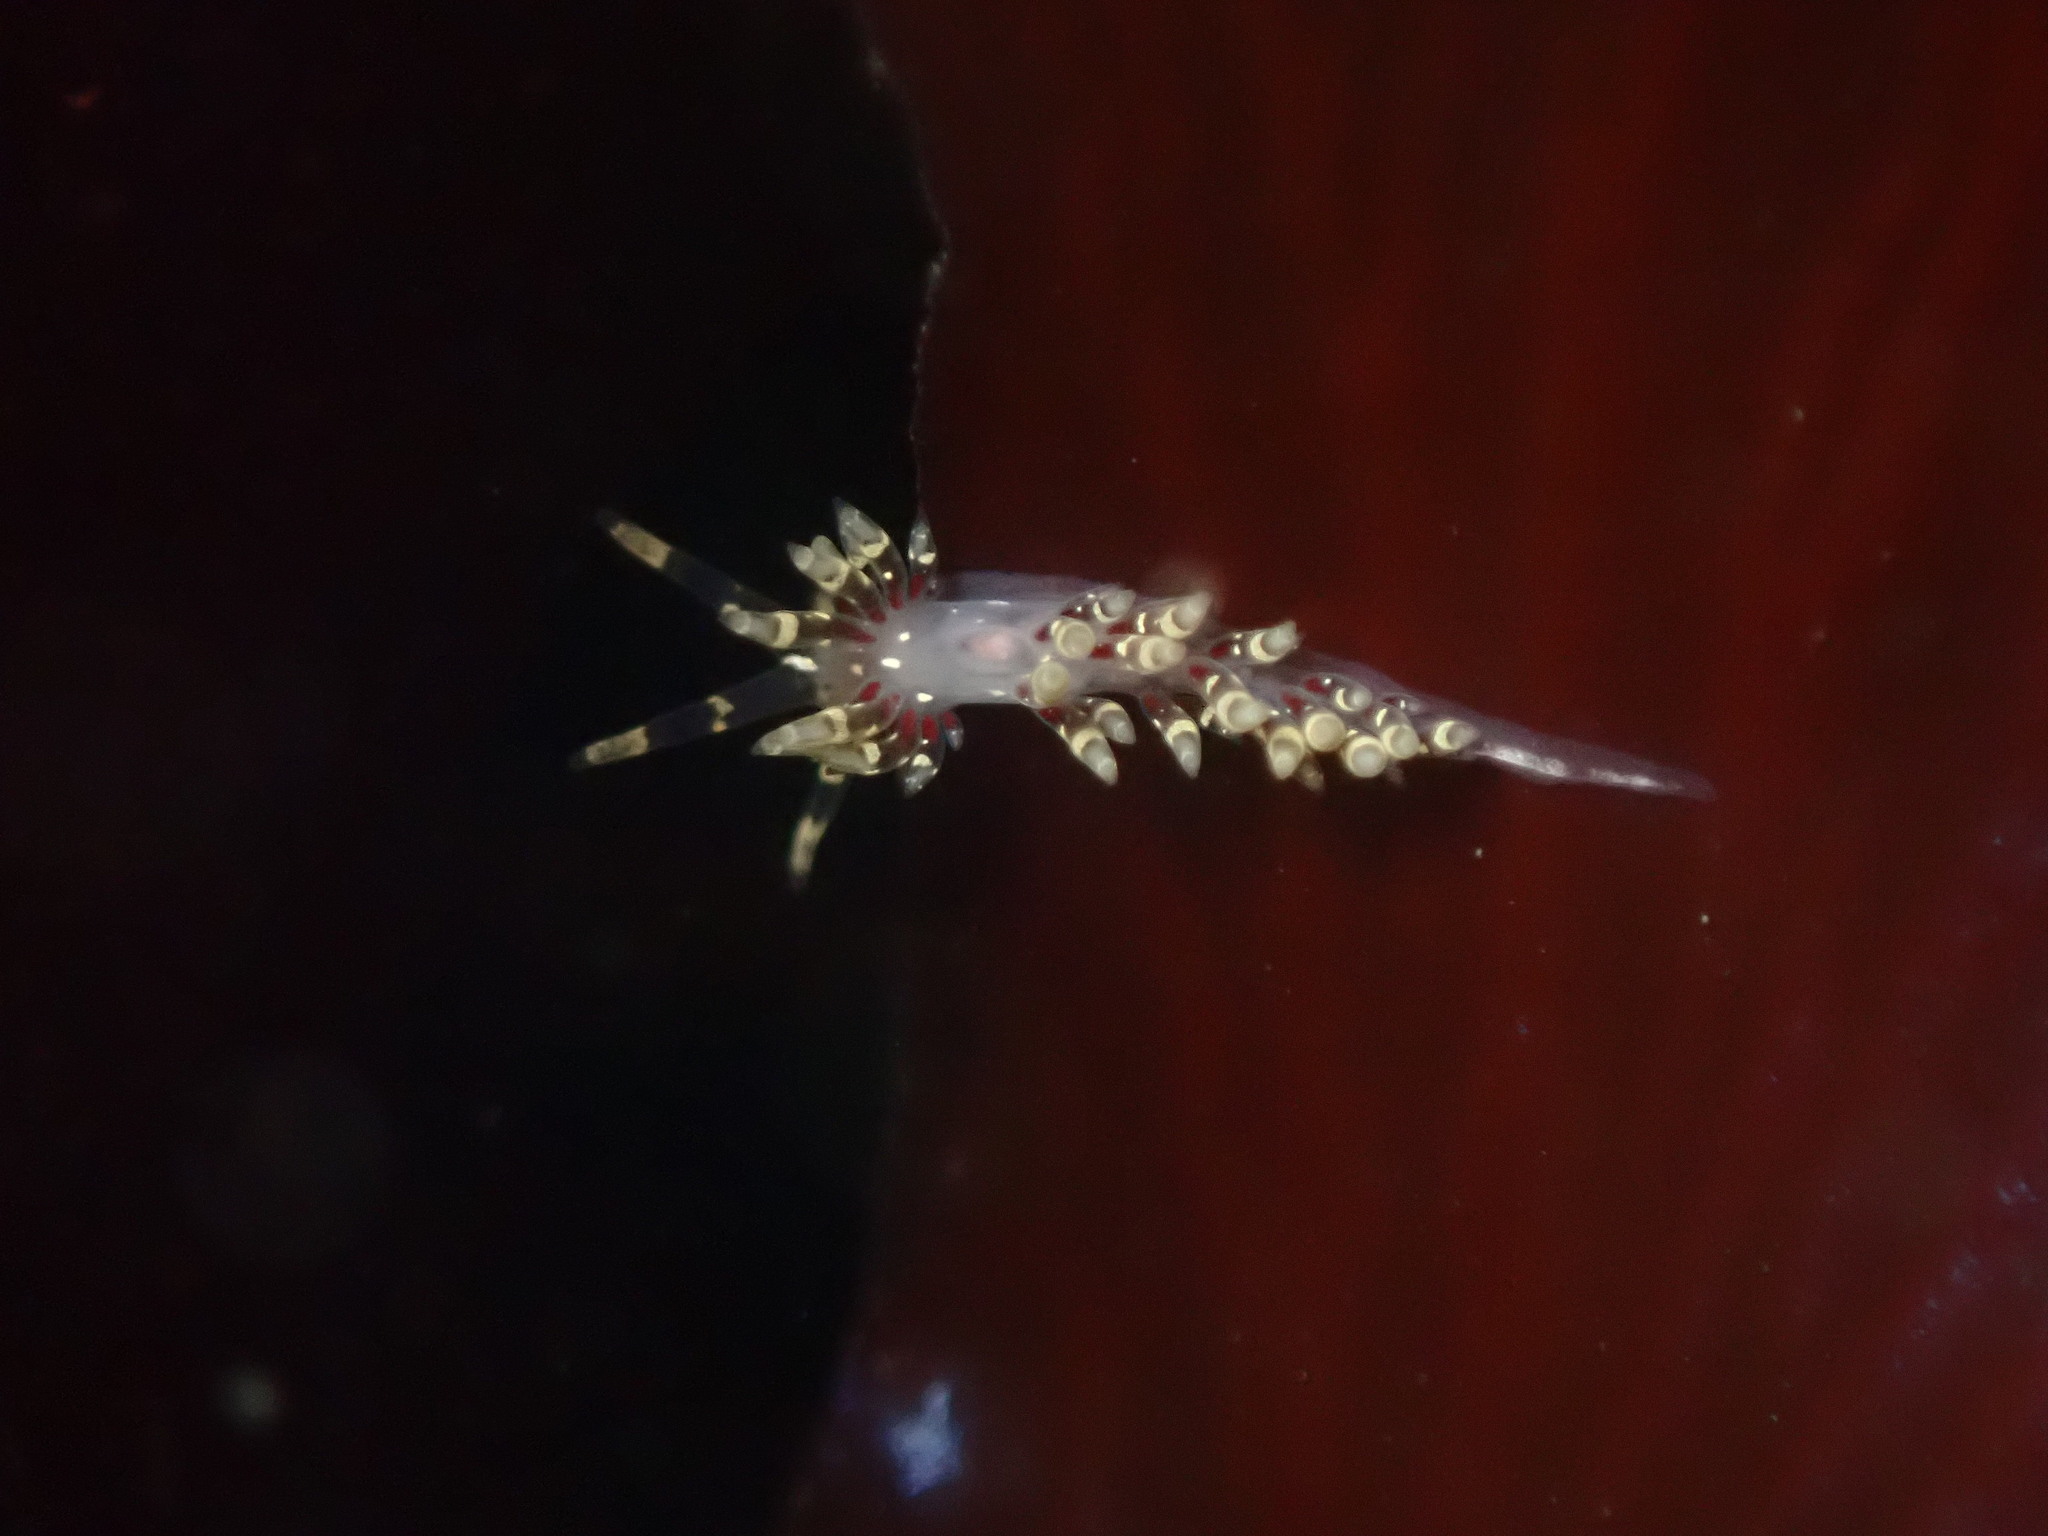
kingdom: Animalia
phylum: Mollusca
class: Gastropoda
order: Nudibranchia
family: Abronicidae
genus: Abronica
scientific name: Abronica abronia
